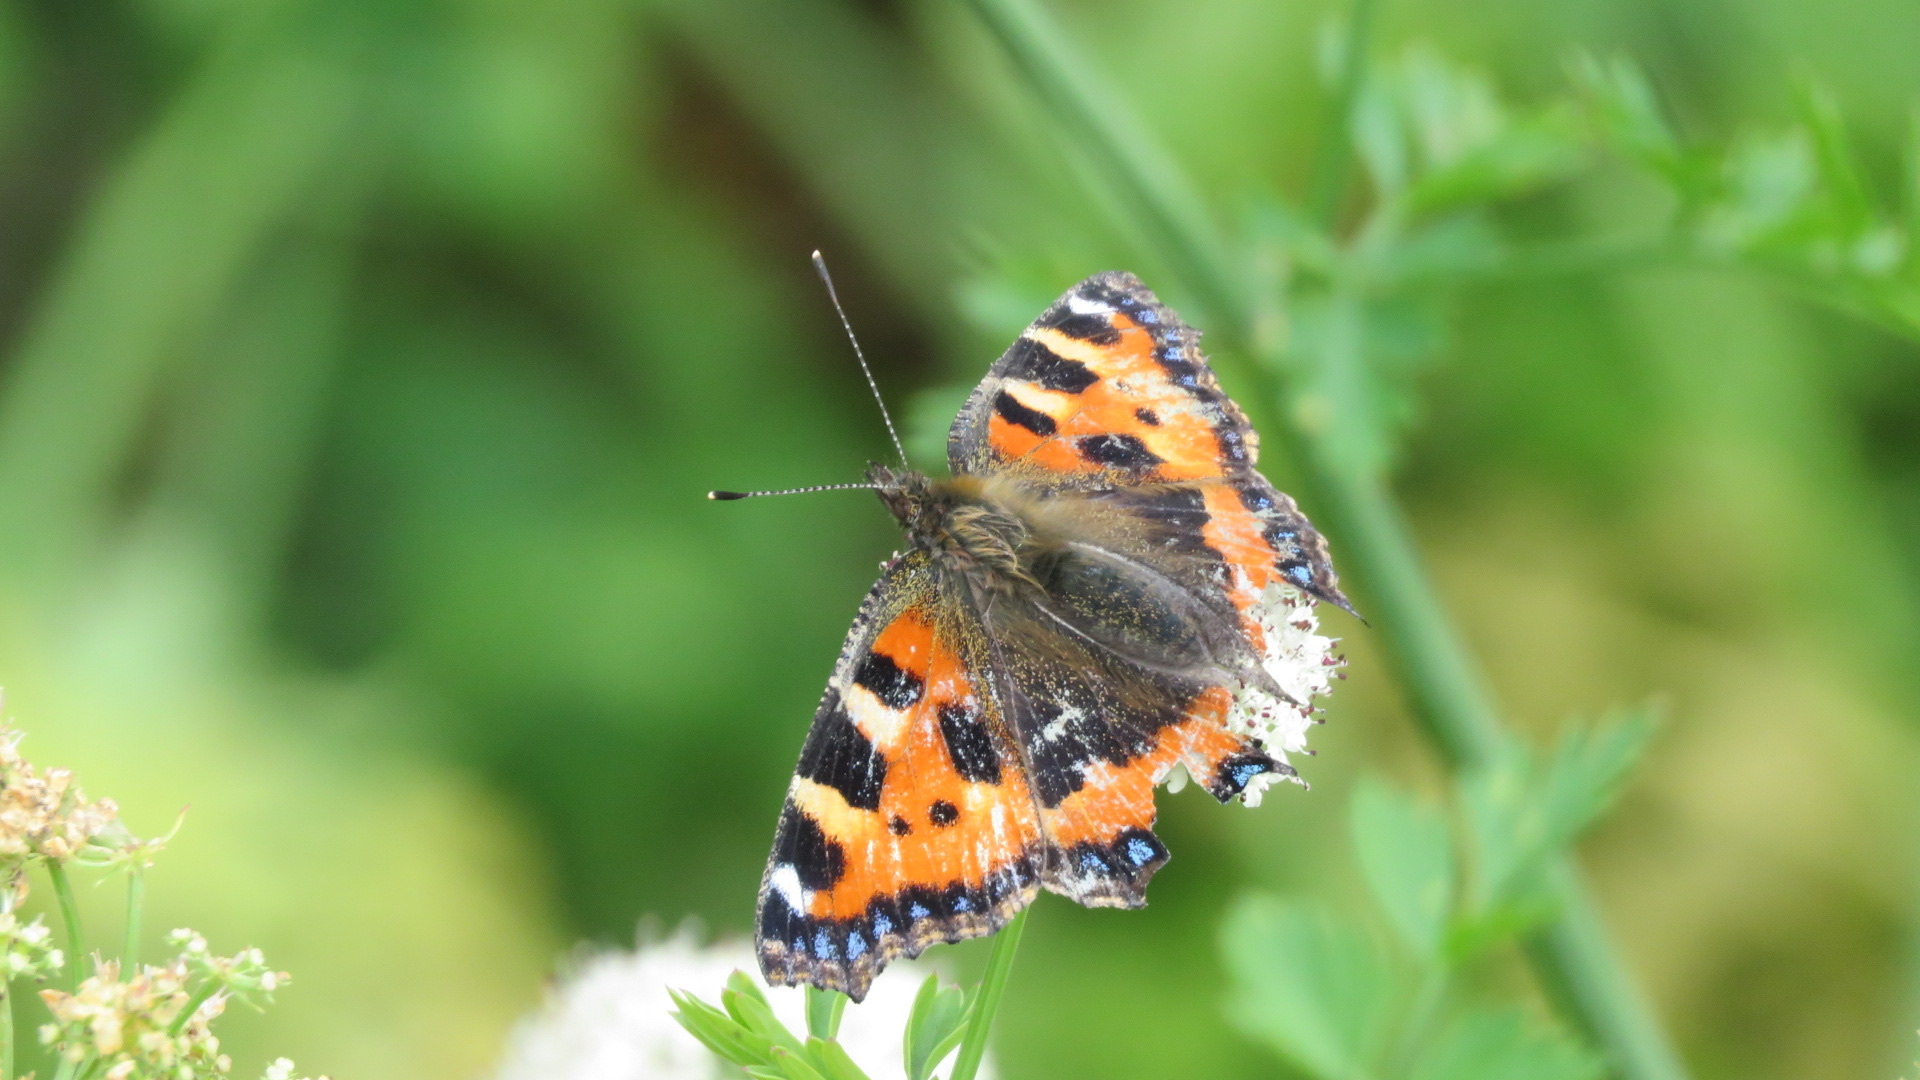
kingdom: Animalia
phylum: Arthropoda
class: Insecta
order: Lepidoptera
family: Nymphalidae
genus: Aglais
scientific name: Aglais urticae
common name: Small tortoiseshell
